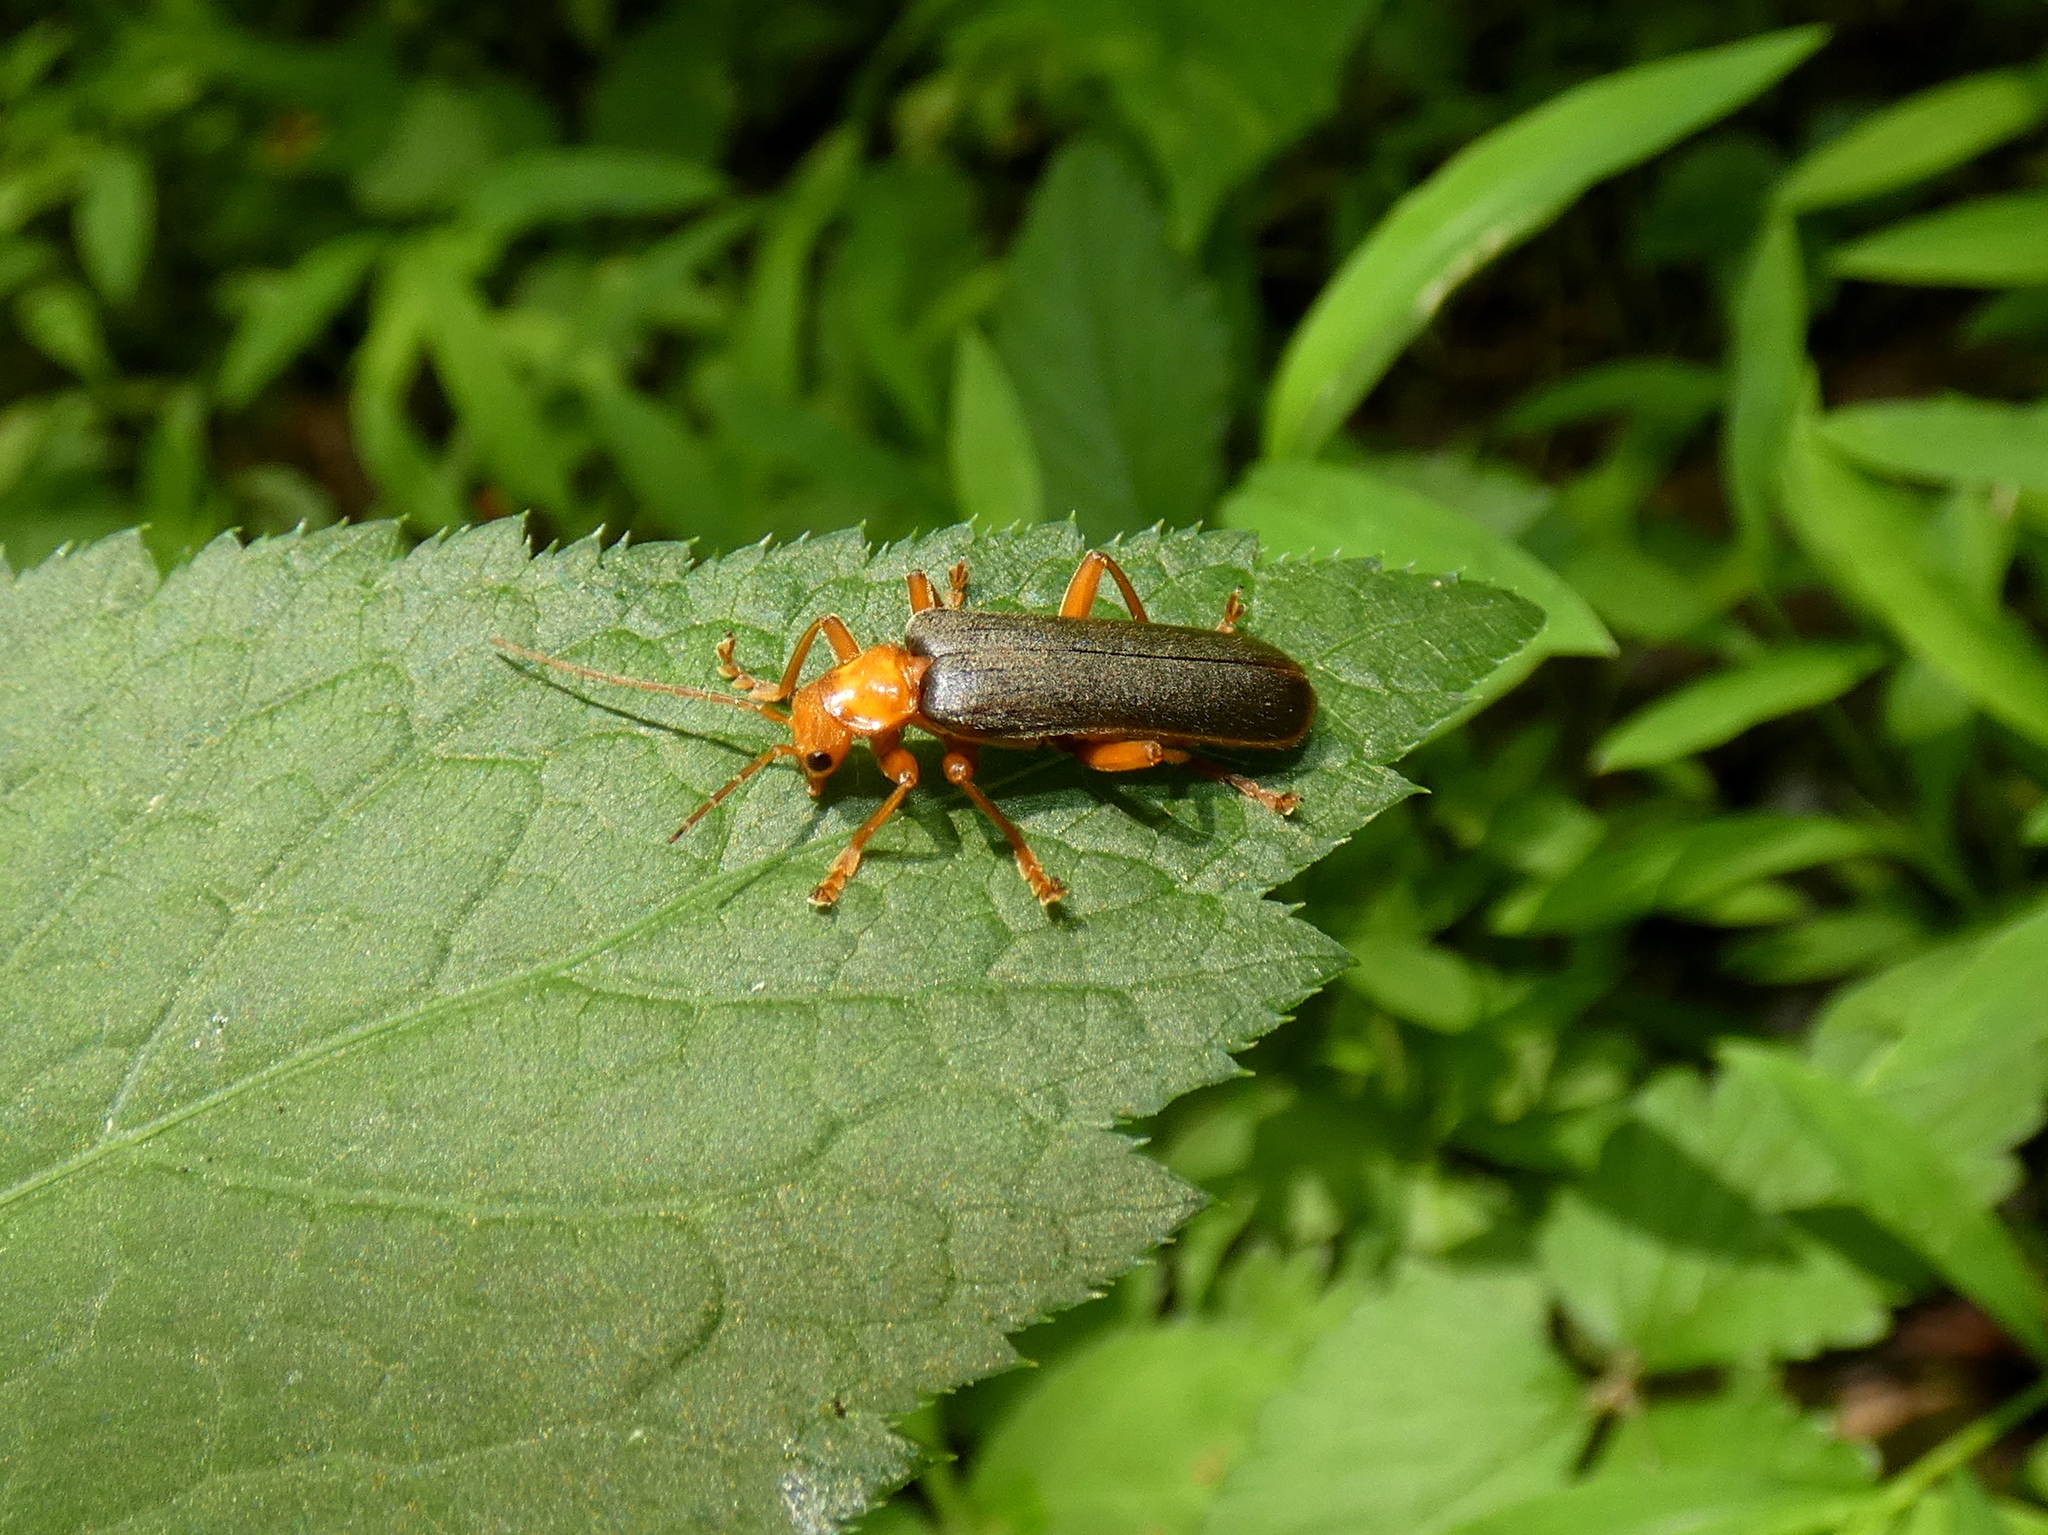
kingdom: Animalia
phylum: Arthropoda
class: Insecta
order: Coleoptera
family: Cantharidae
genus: Pacificanthia
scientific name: Pacificanthia rotundicollis
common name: Brown leatherwing beetle
